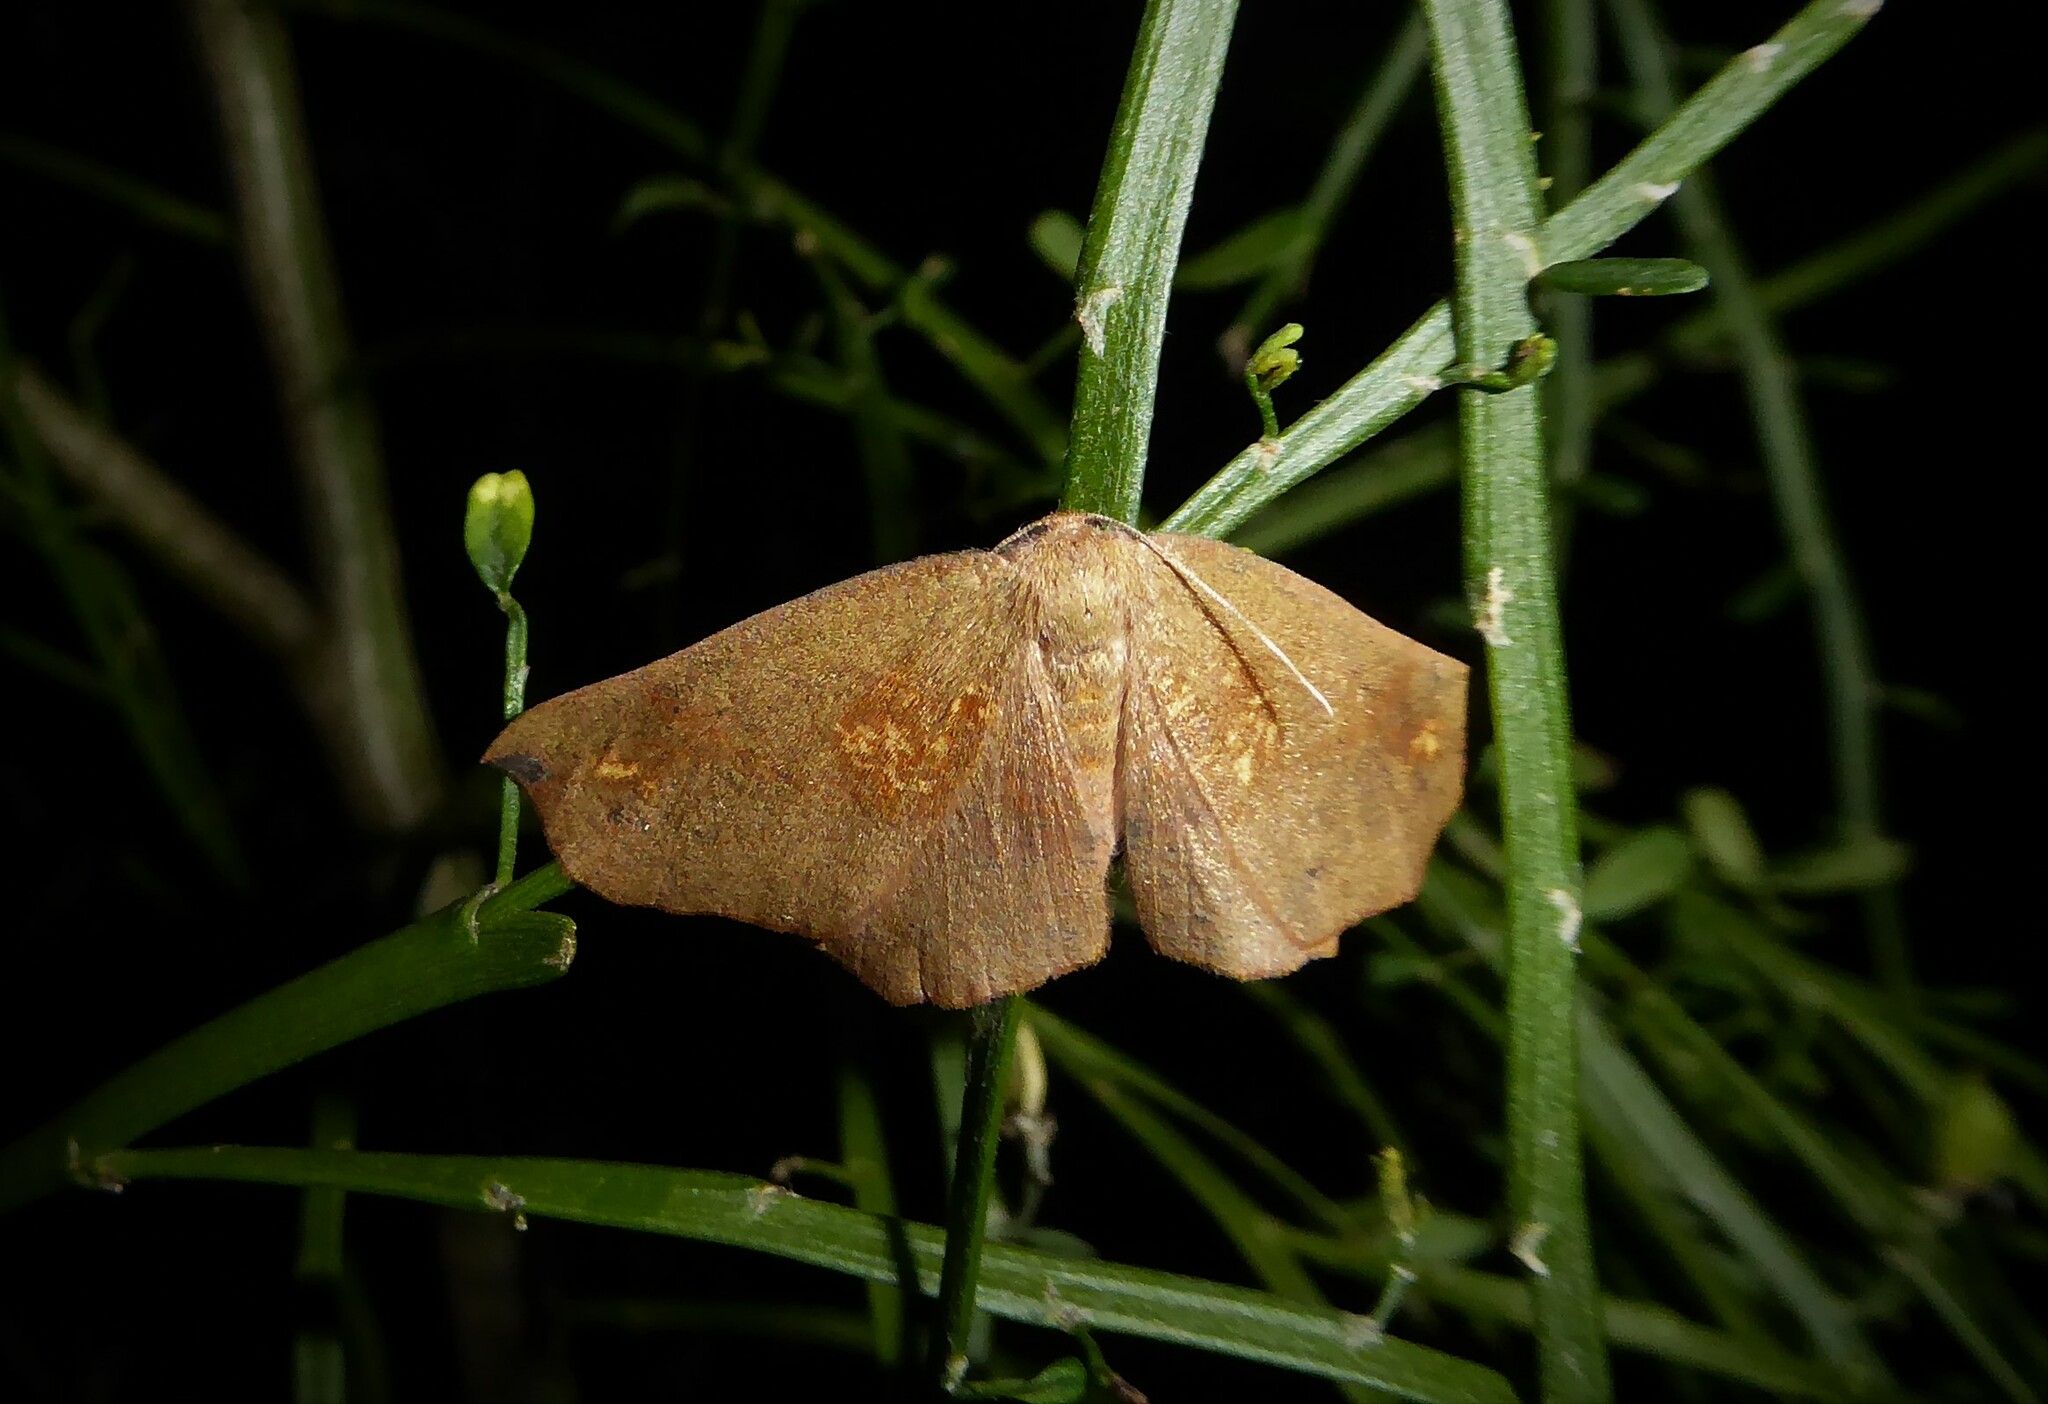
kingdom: Animalia
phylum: Arthropoda
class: Insecta
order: Lepidoptera
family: Geometridae
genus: Xyridacma
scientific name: Xyridacma ustaria
